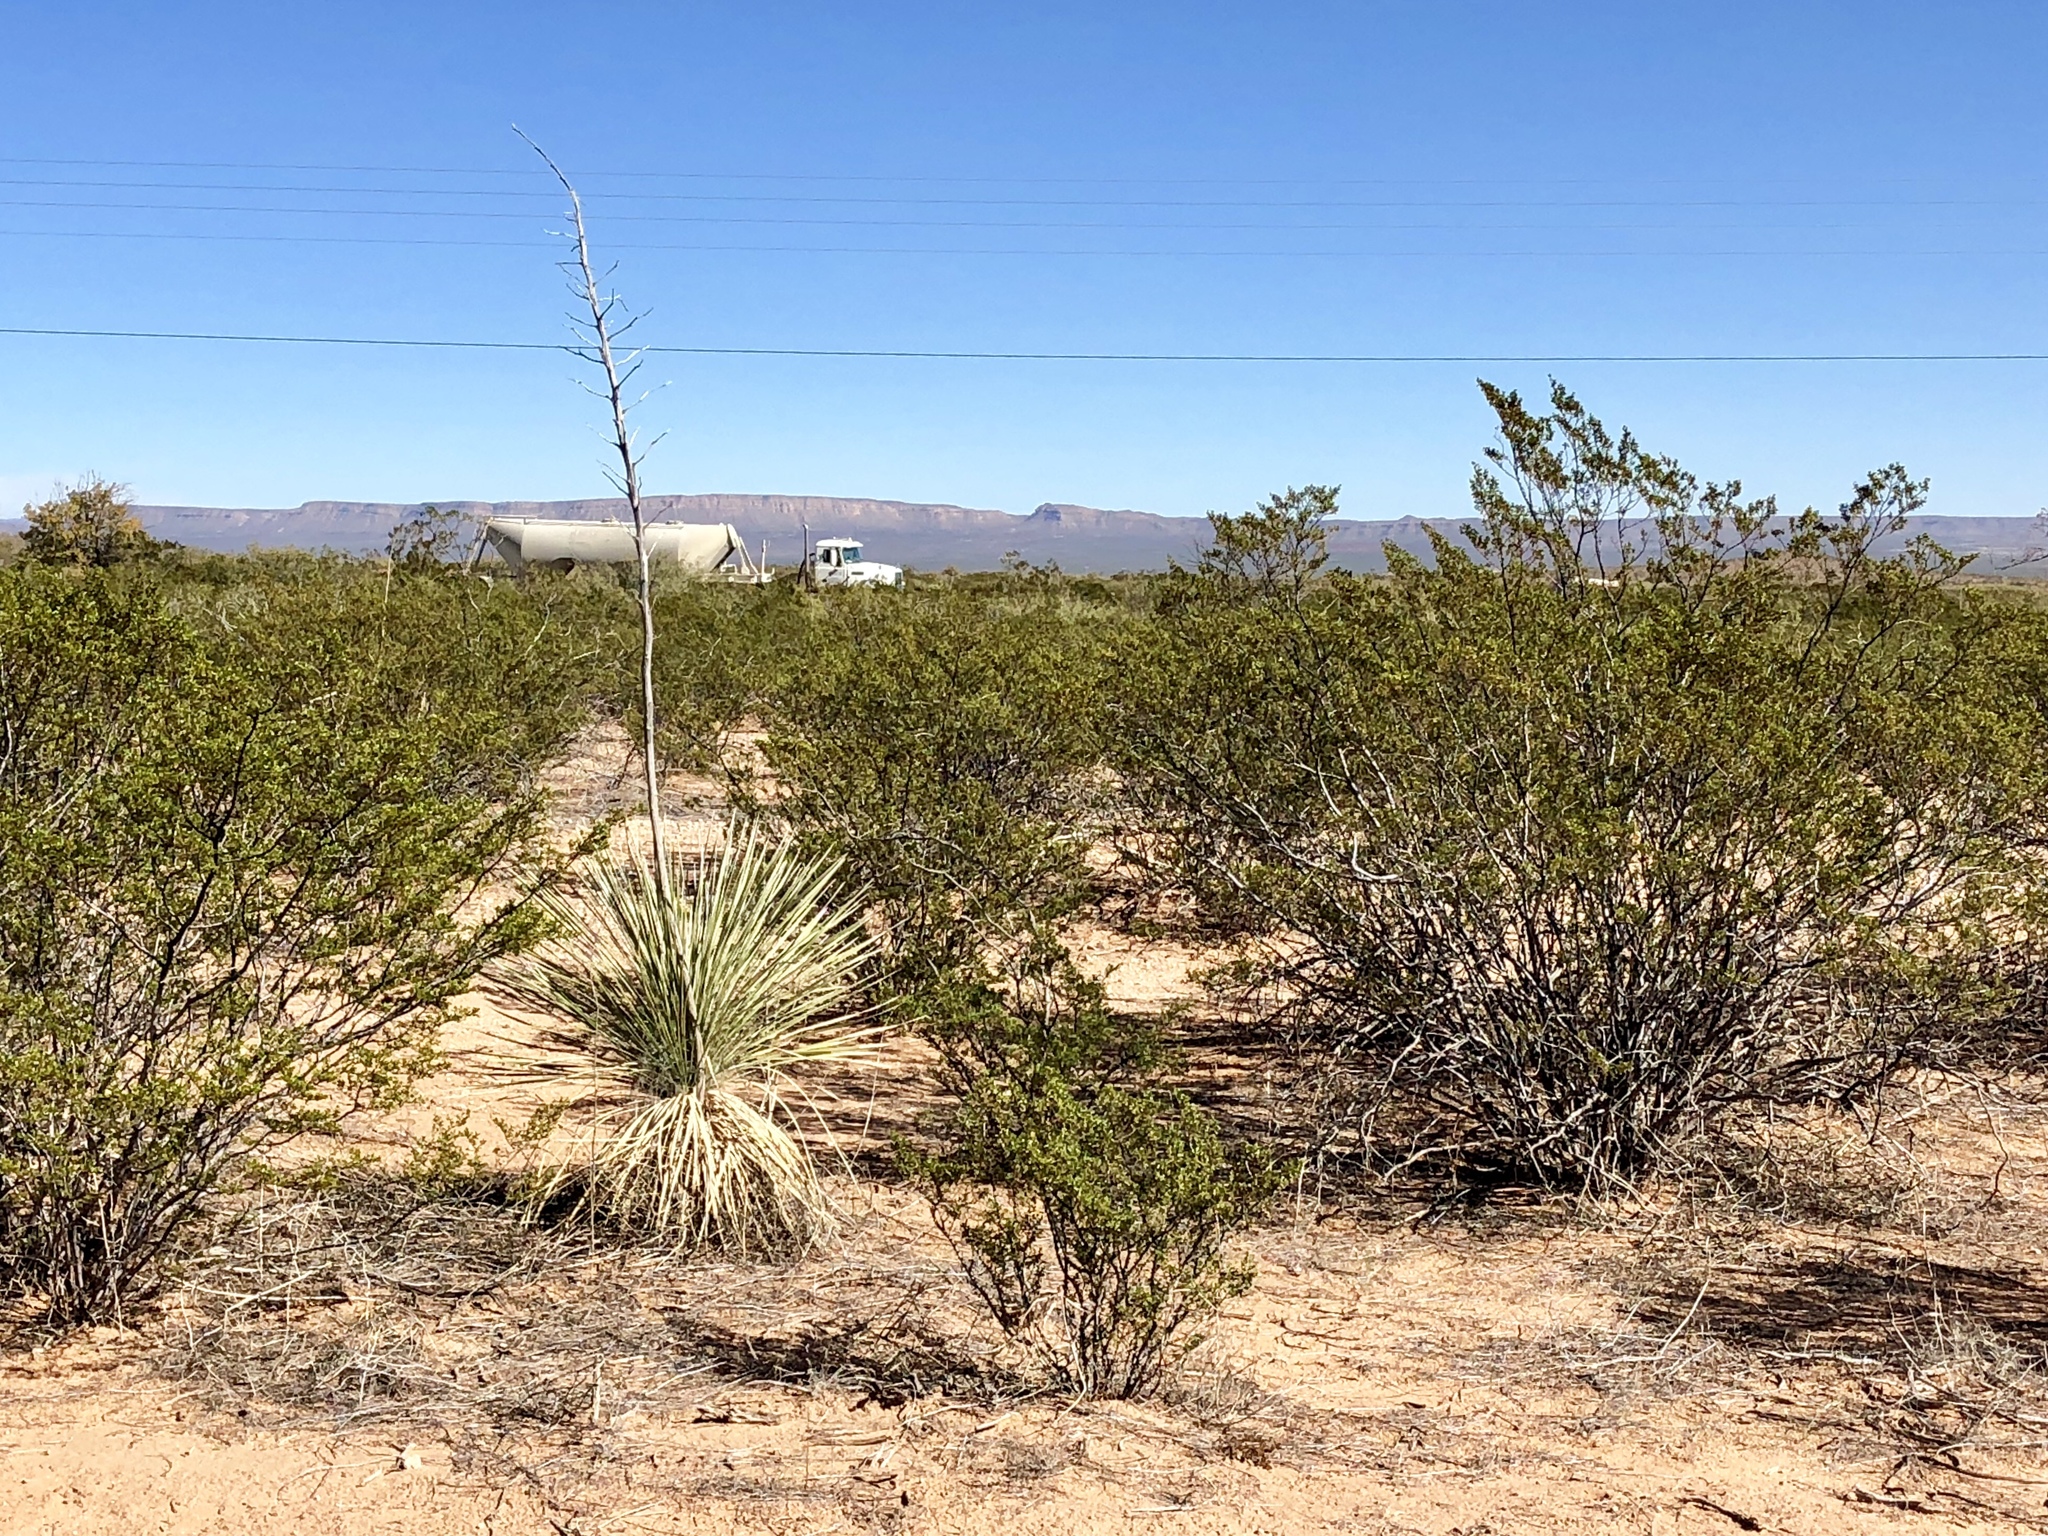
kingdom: Plantae
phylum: Tracheophyta
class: Liliopsida
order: Asparagales
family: Asparagaceae
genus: Yucca
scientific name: Yucca elata
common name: Palmella
